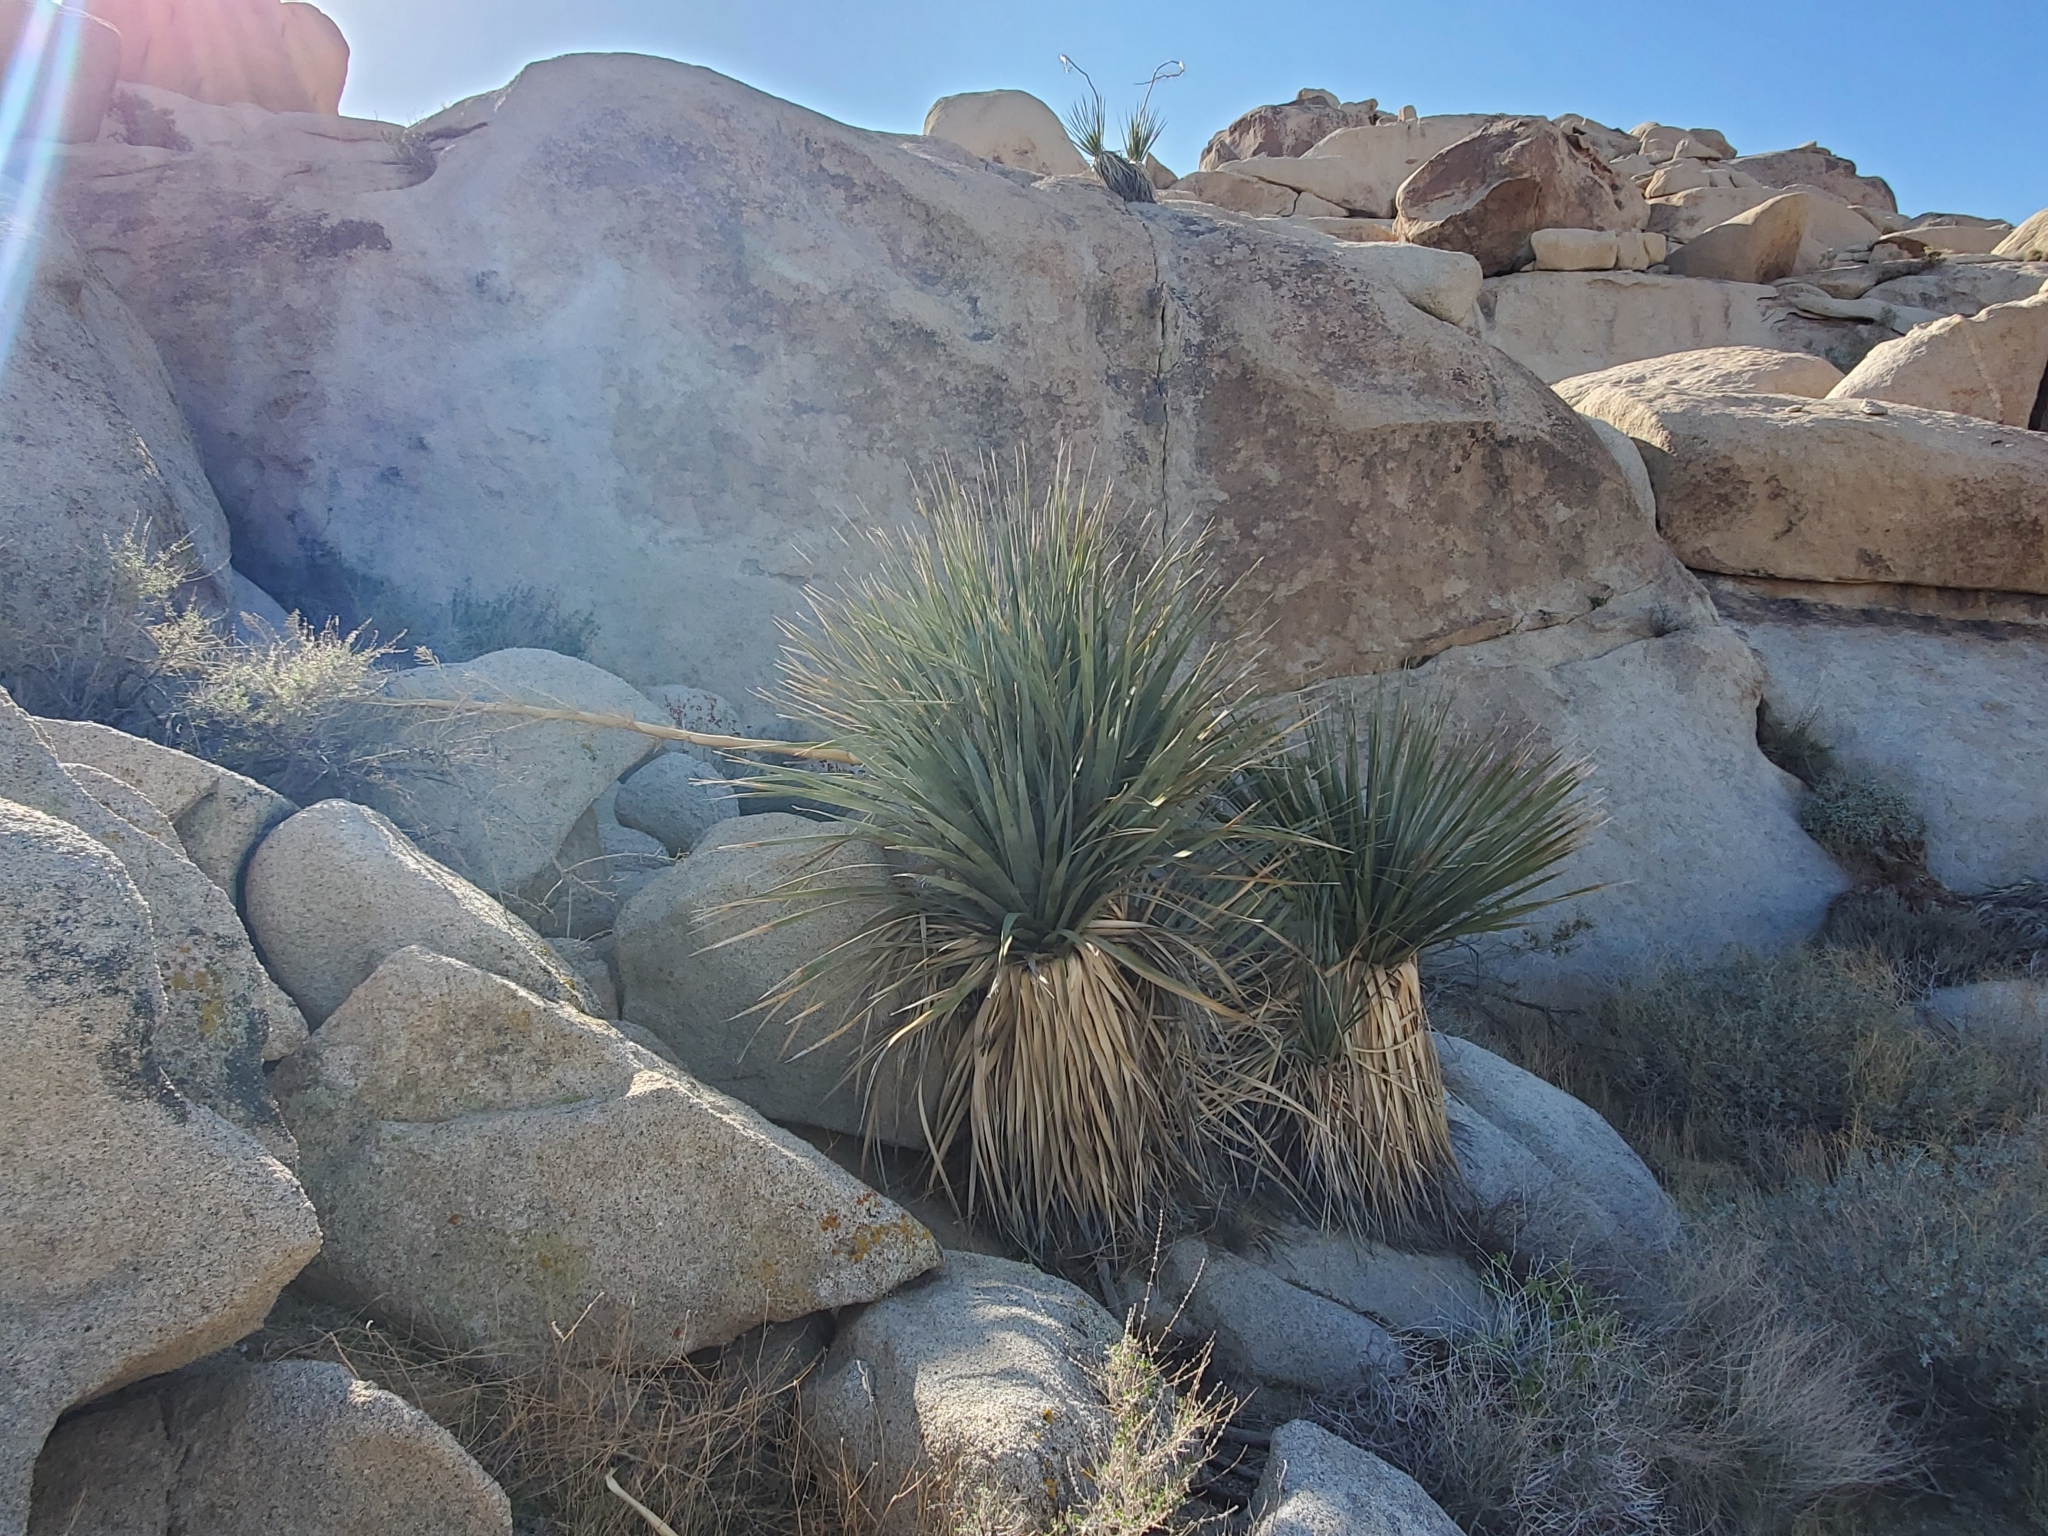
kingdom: Plantae
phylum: Tracheophyta
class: Liliopsida
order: Asparagales
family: Asparagaceae
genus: Nolina
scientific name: Nolina bigelovii
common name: Bigelow bear-grass
